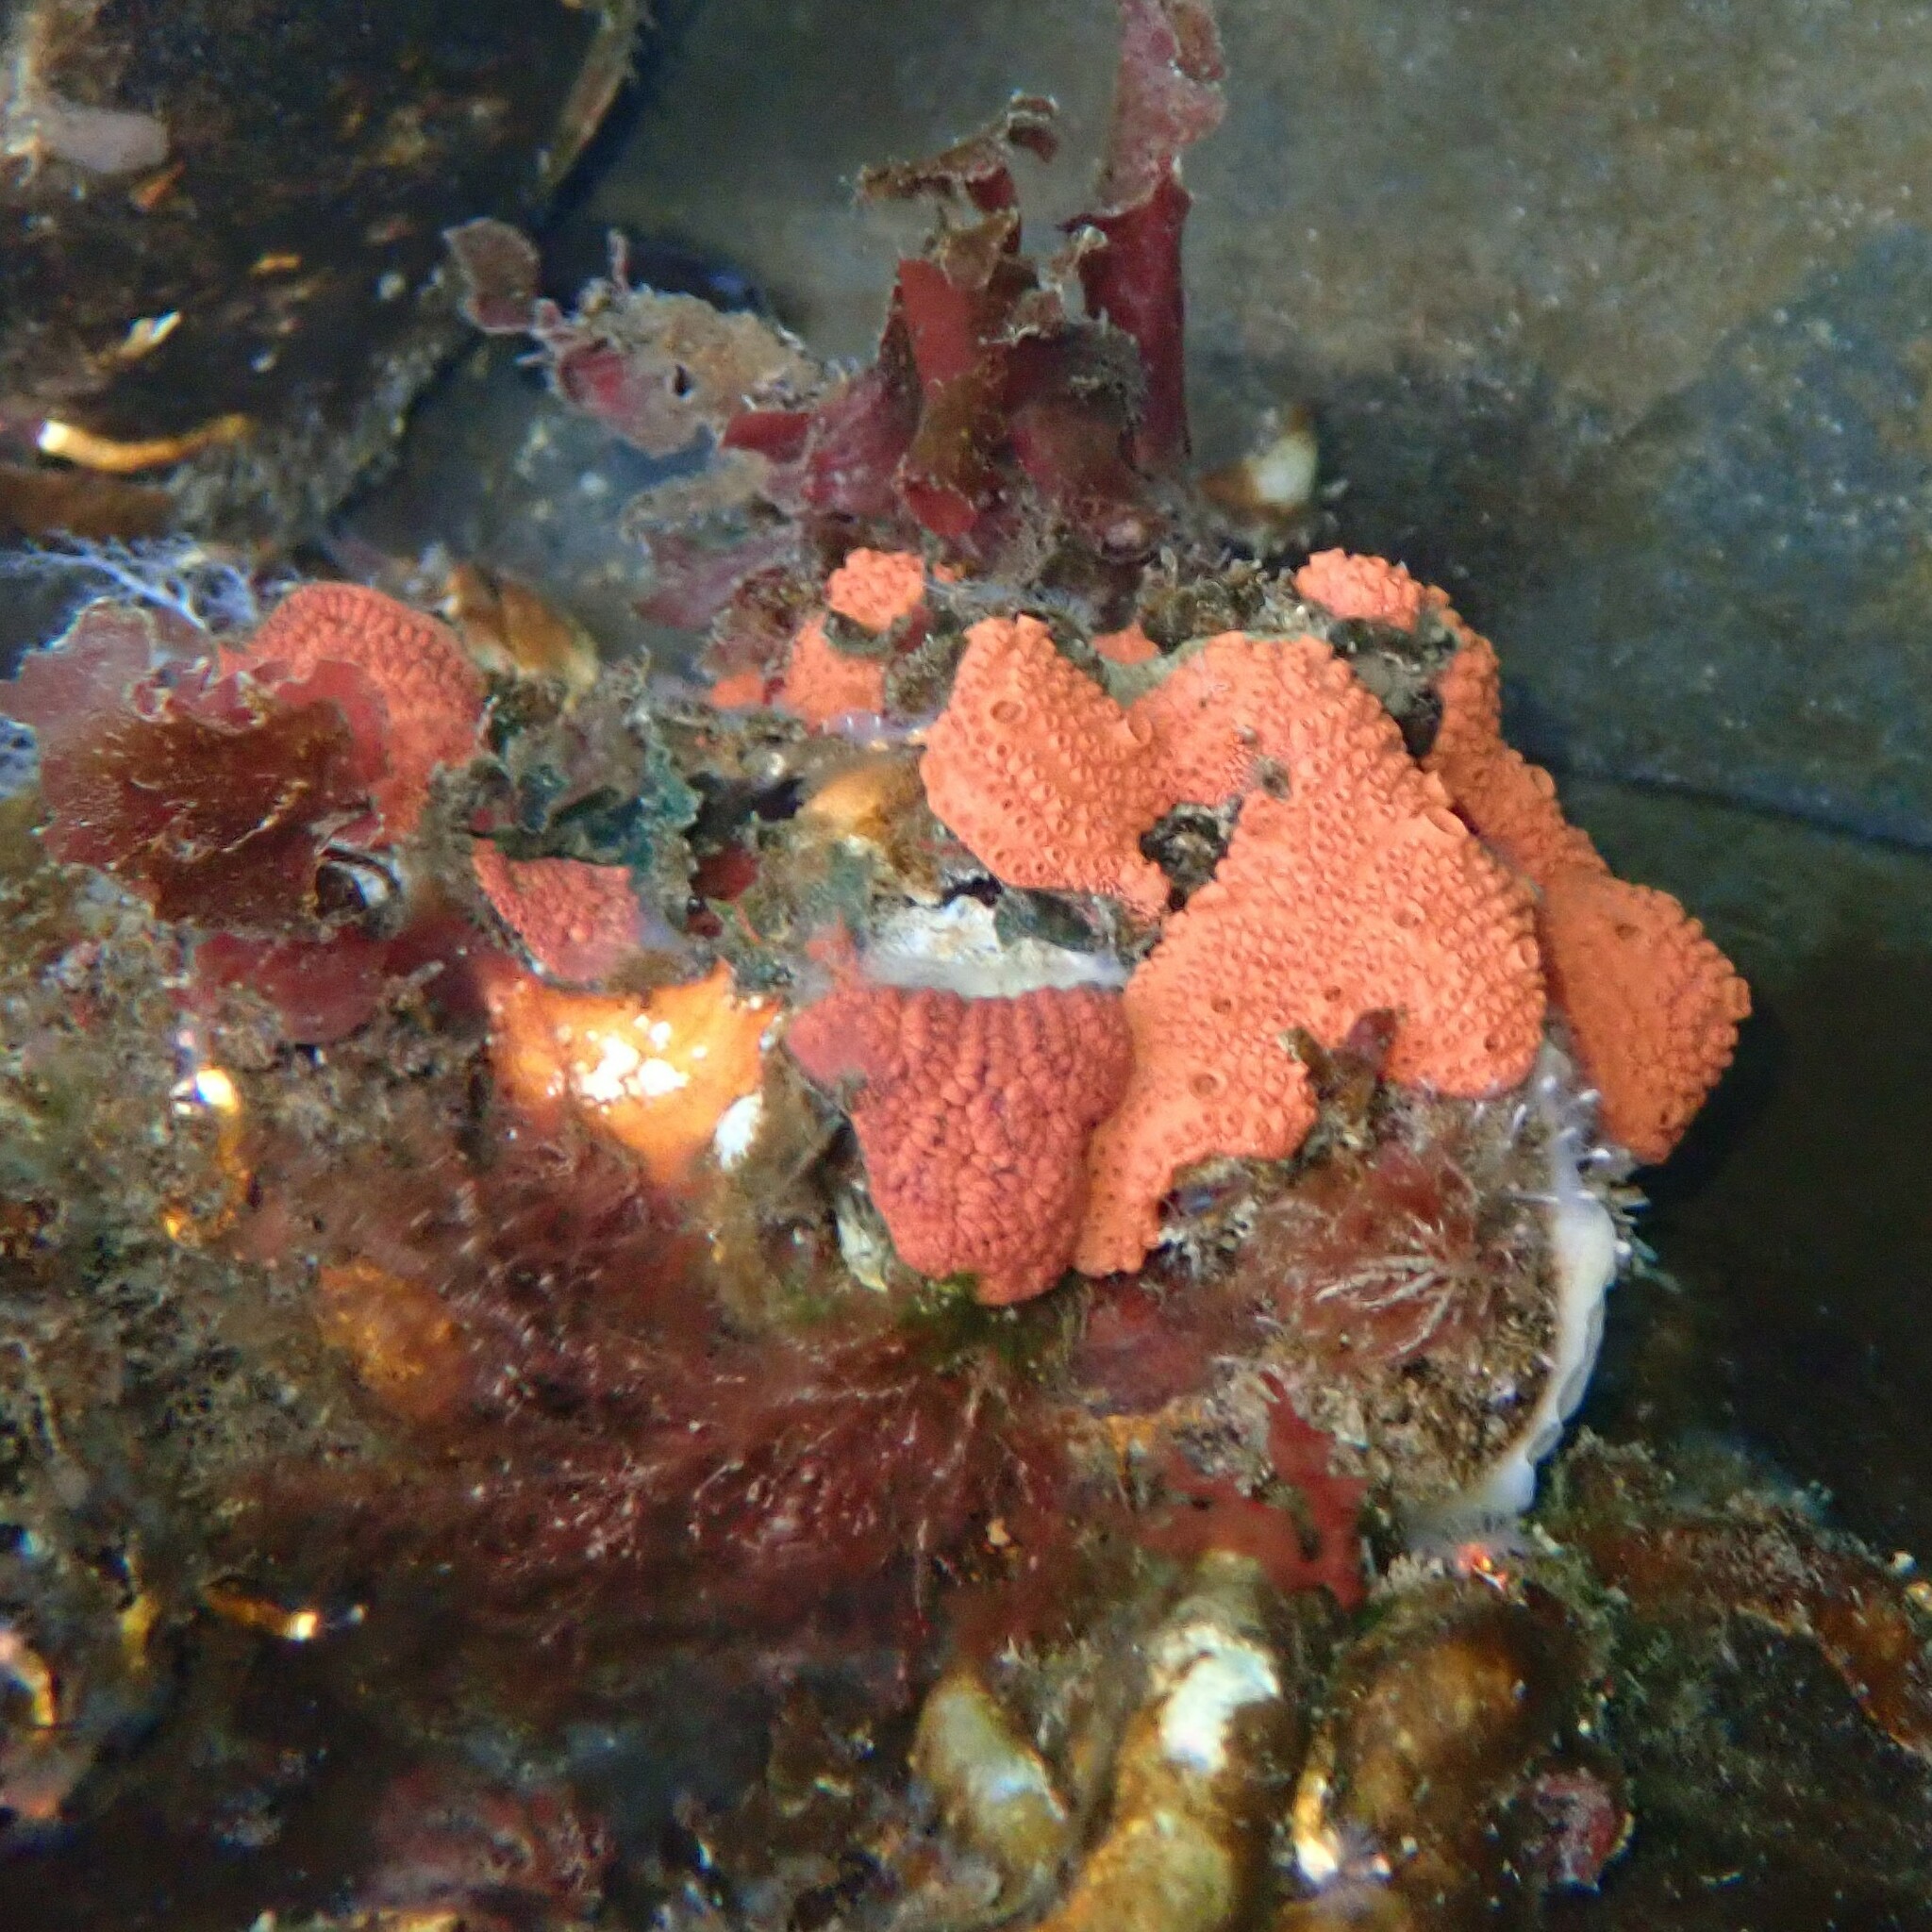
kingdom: Animalia
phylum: Chordata
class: Ascidiacea
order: Stolidobranchia
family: Styelidae
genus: Botrylloides
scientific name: Botrylloides violaceus
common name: Colonial sea squirt
